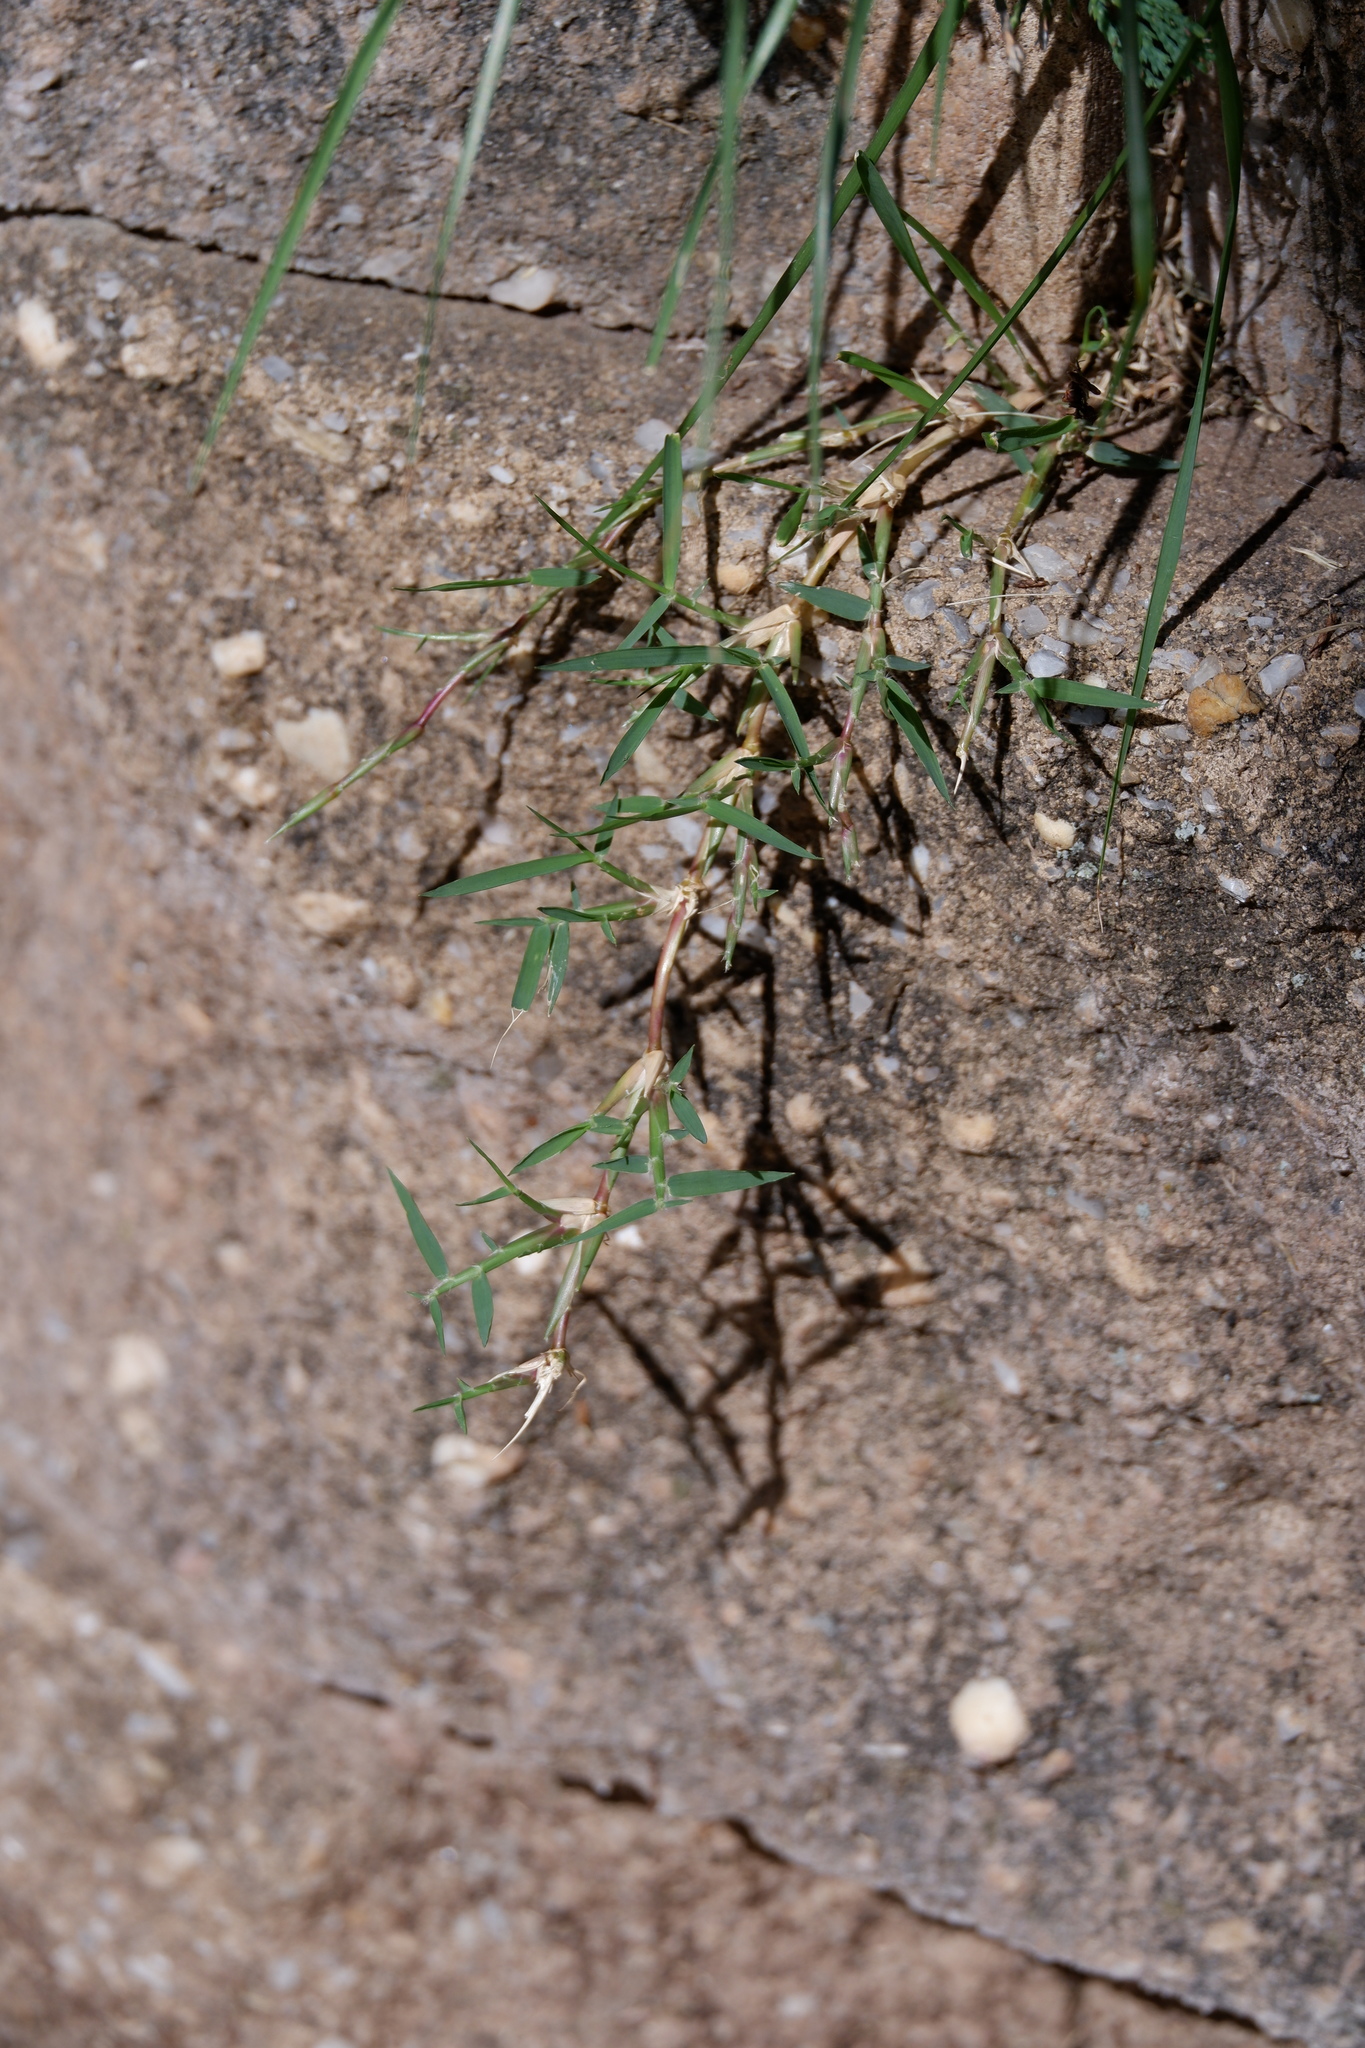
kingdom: Plantae
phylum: Tracheophyta
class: Liliopsida
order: Poales
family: Poaceae
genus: Cynodon
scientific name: Cynodon dactylon
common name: Bermuda grass
